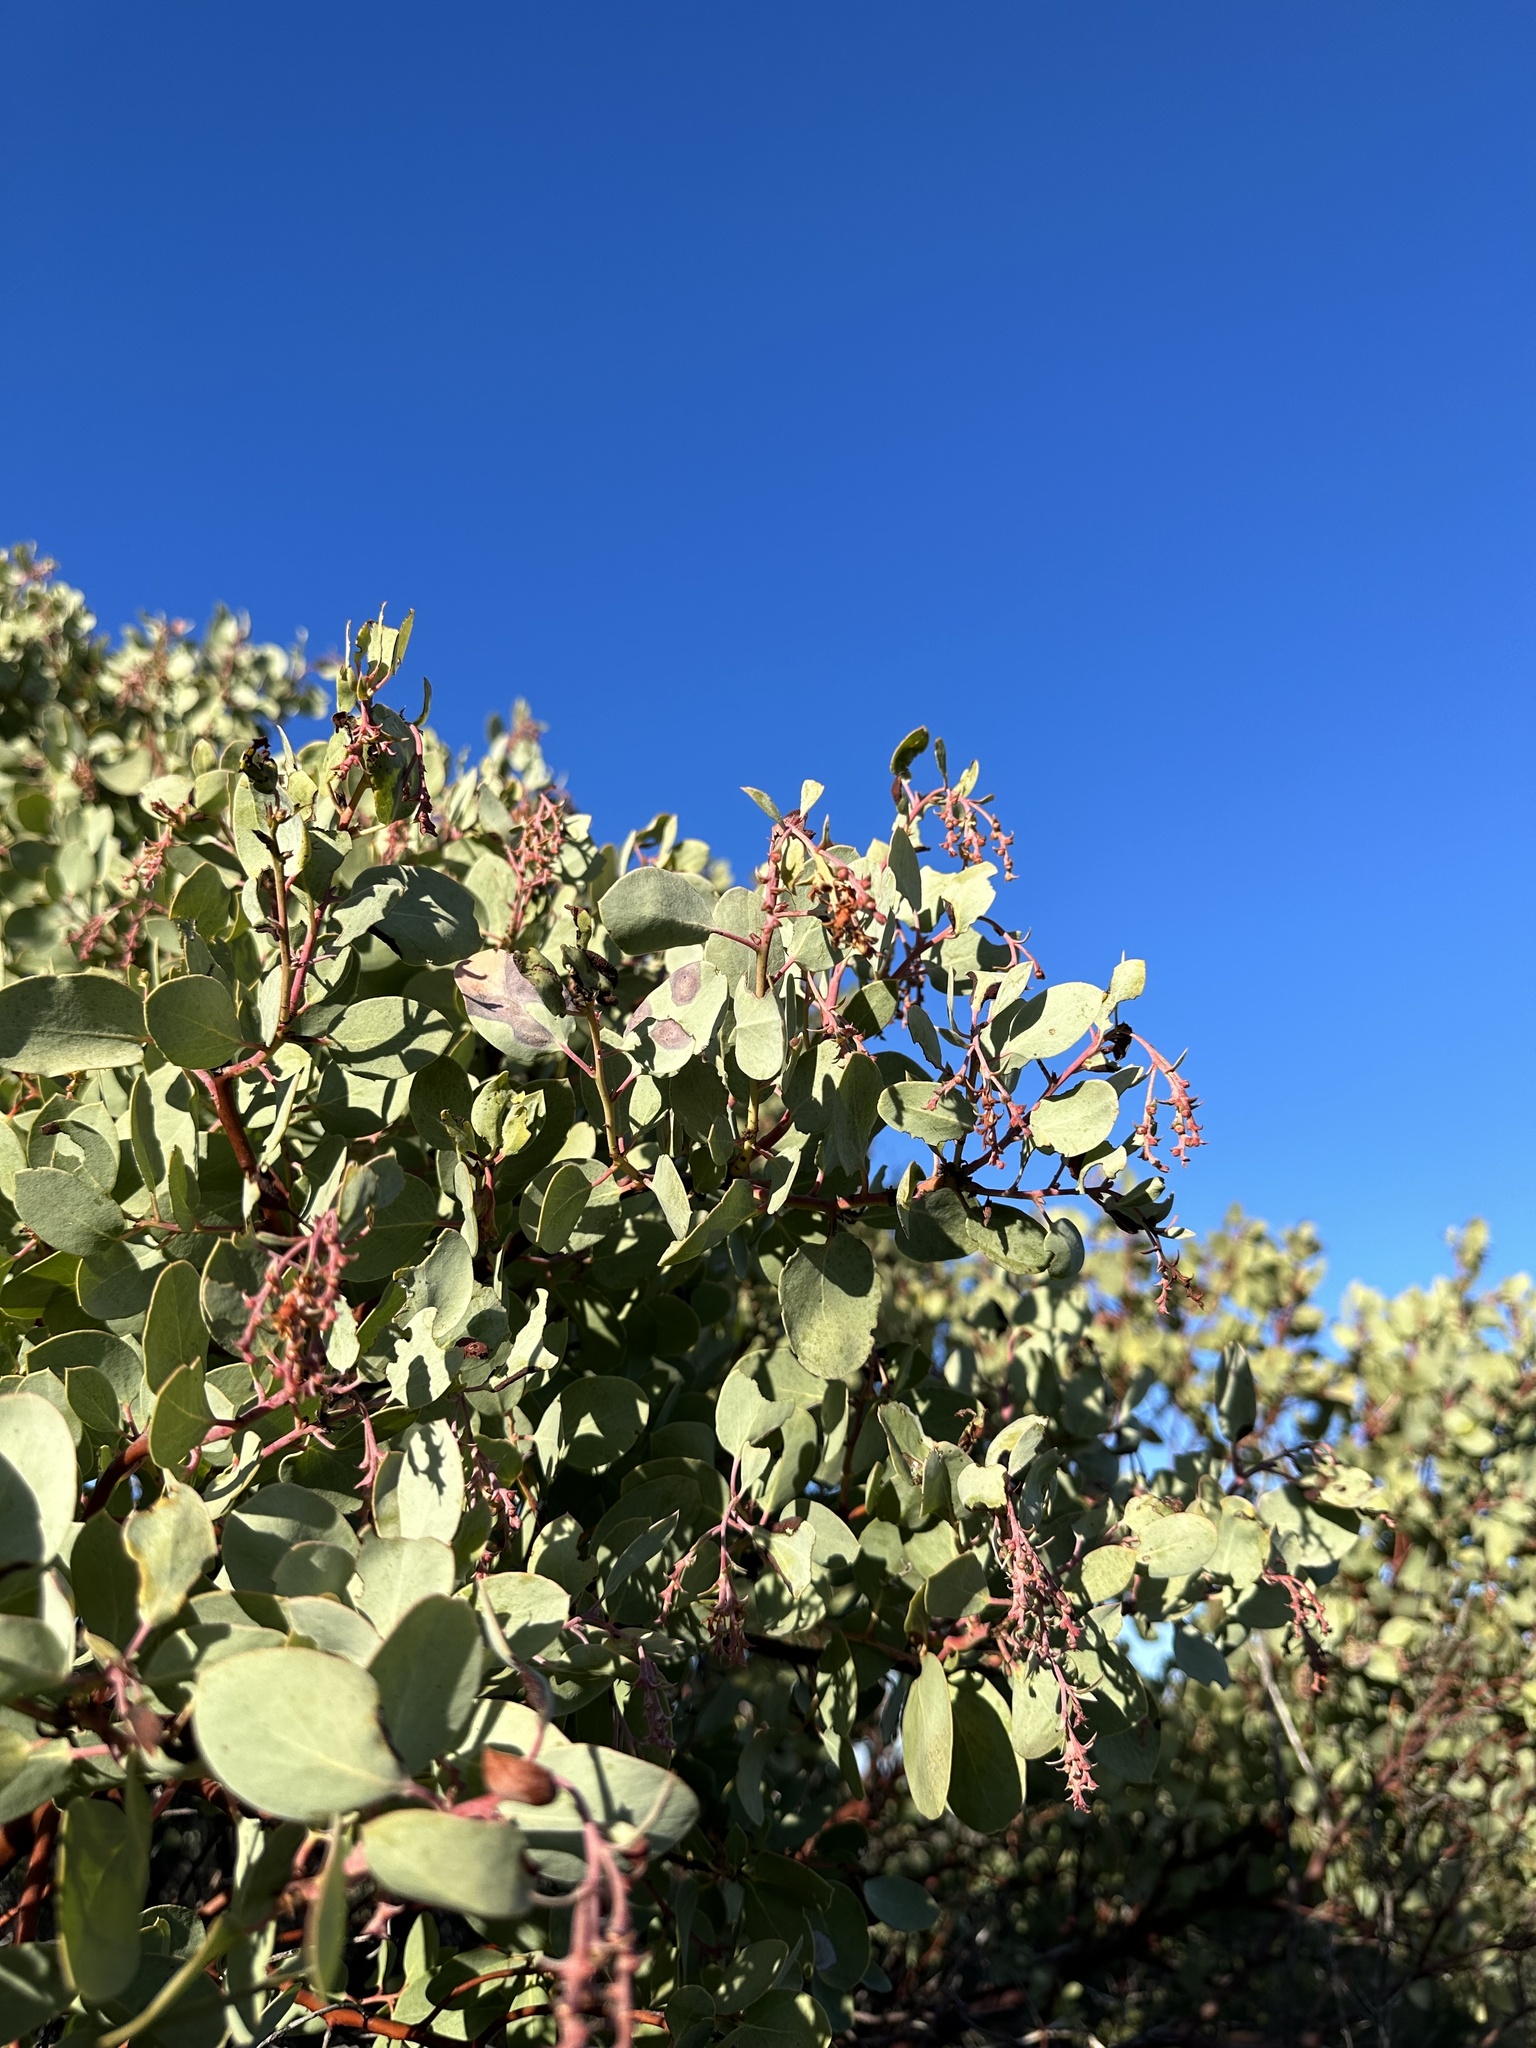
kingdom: Plantae
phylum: Tracheophyta
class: Magnoliopsida
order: Ericales
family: Ericaceae
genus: Arctostaphylos
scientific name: Arctostaphylos glauca
